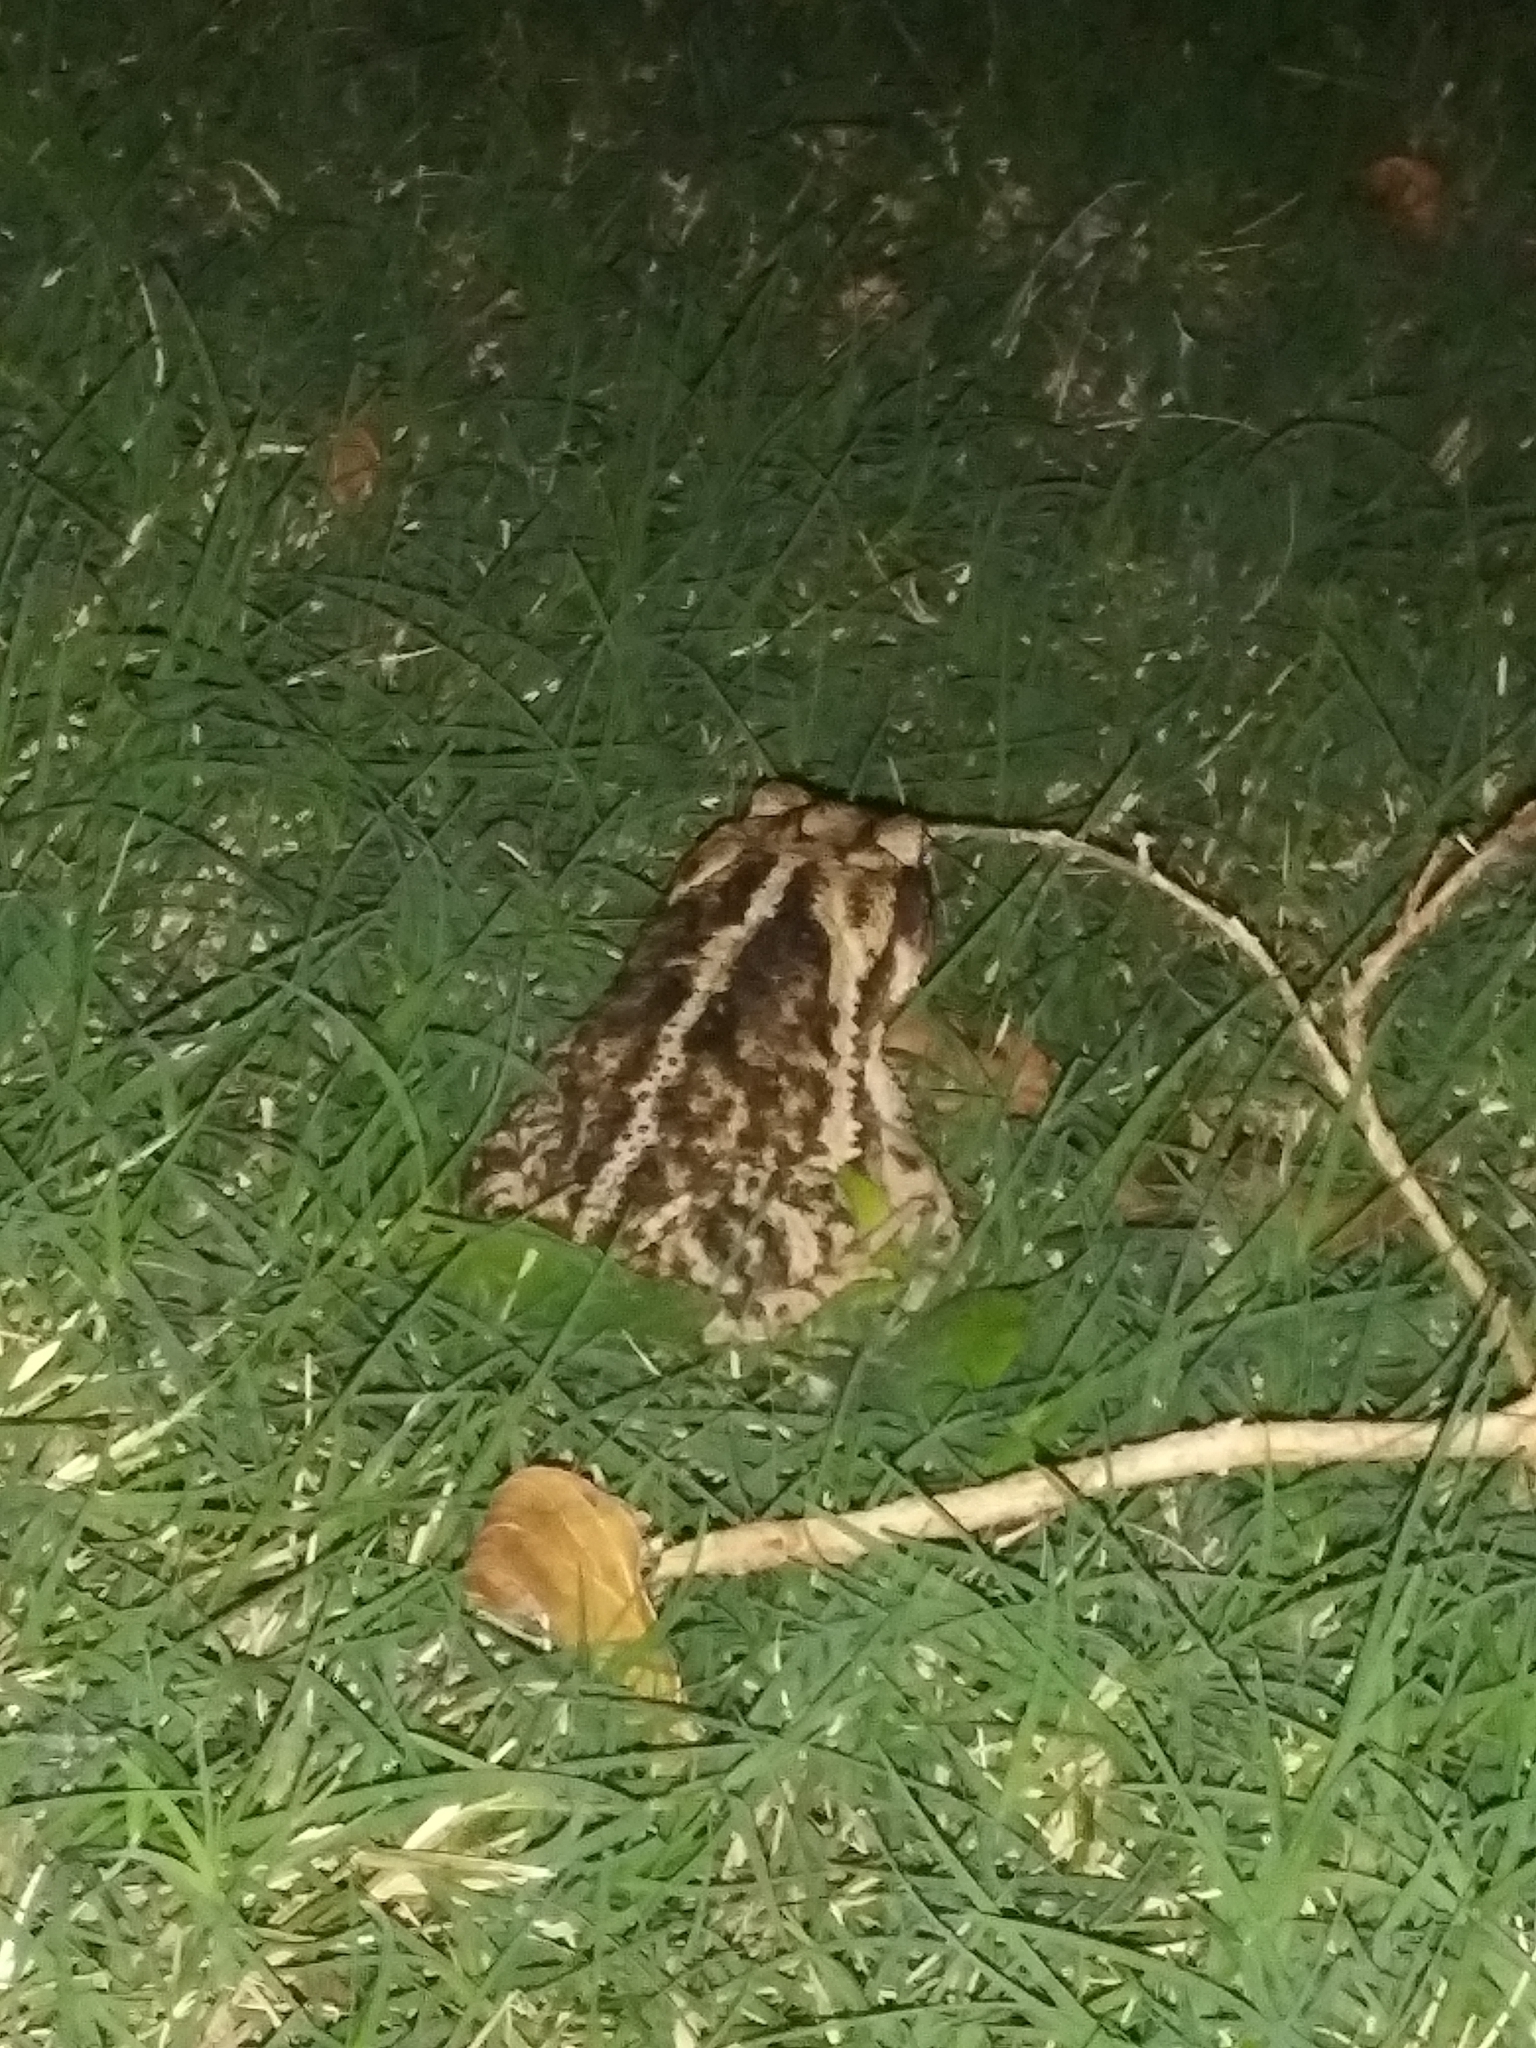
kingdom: Animalia
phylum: Chordata
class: Amphibia
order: Anura
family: Bufonidae
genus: Incilius
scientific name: Incilius nebulifer
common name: Gulf coast toad
